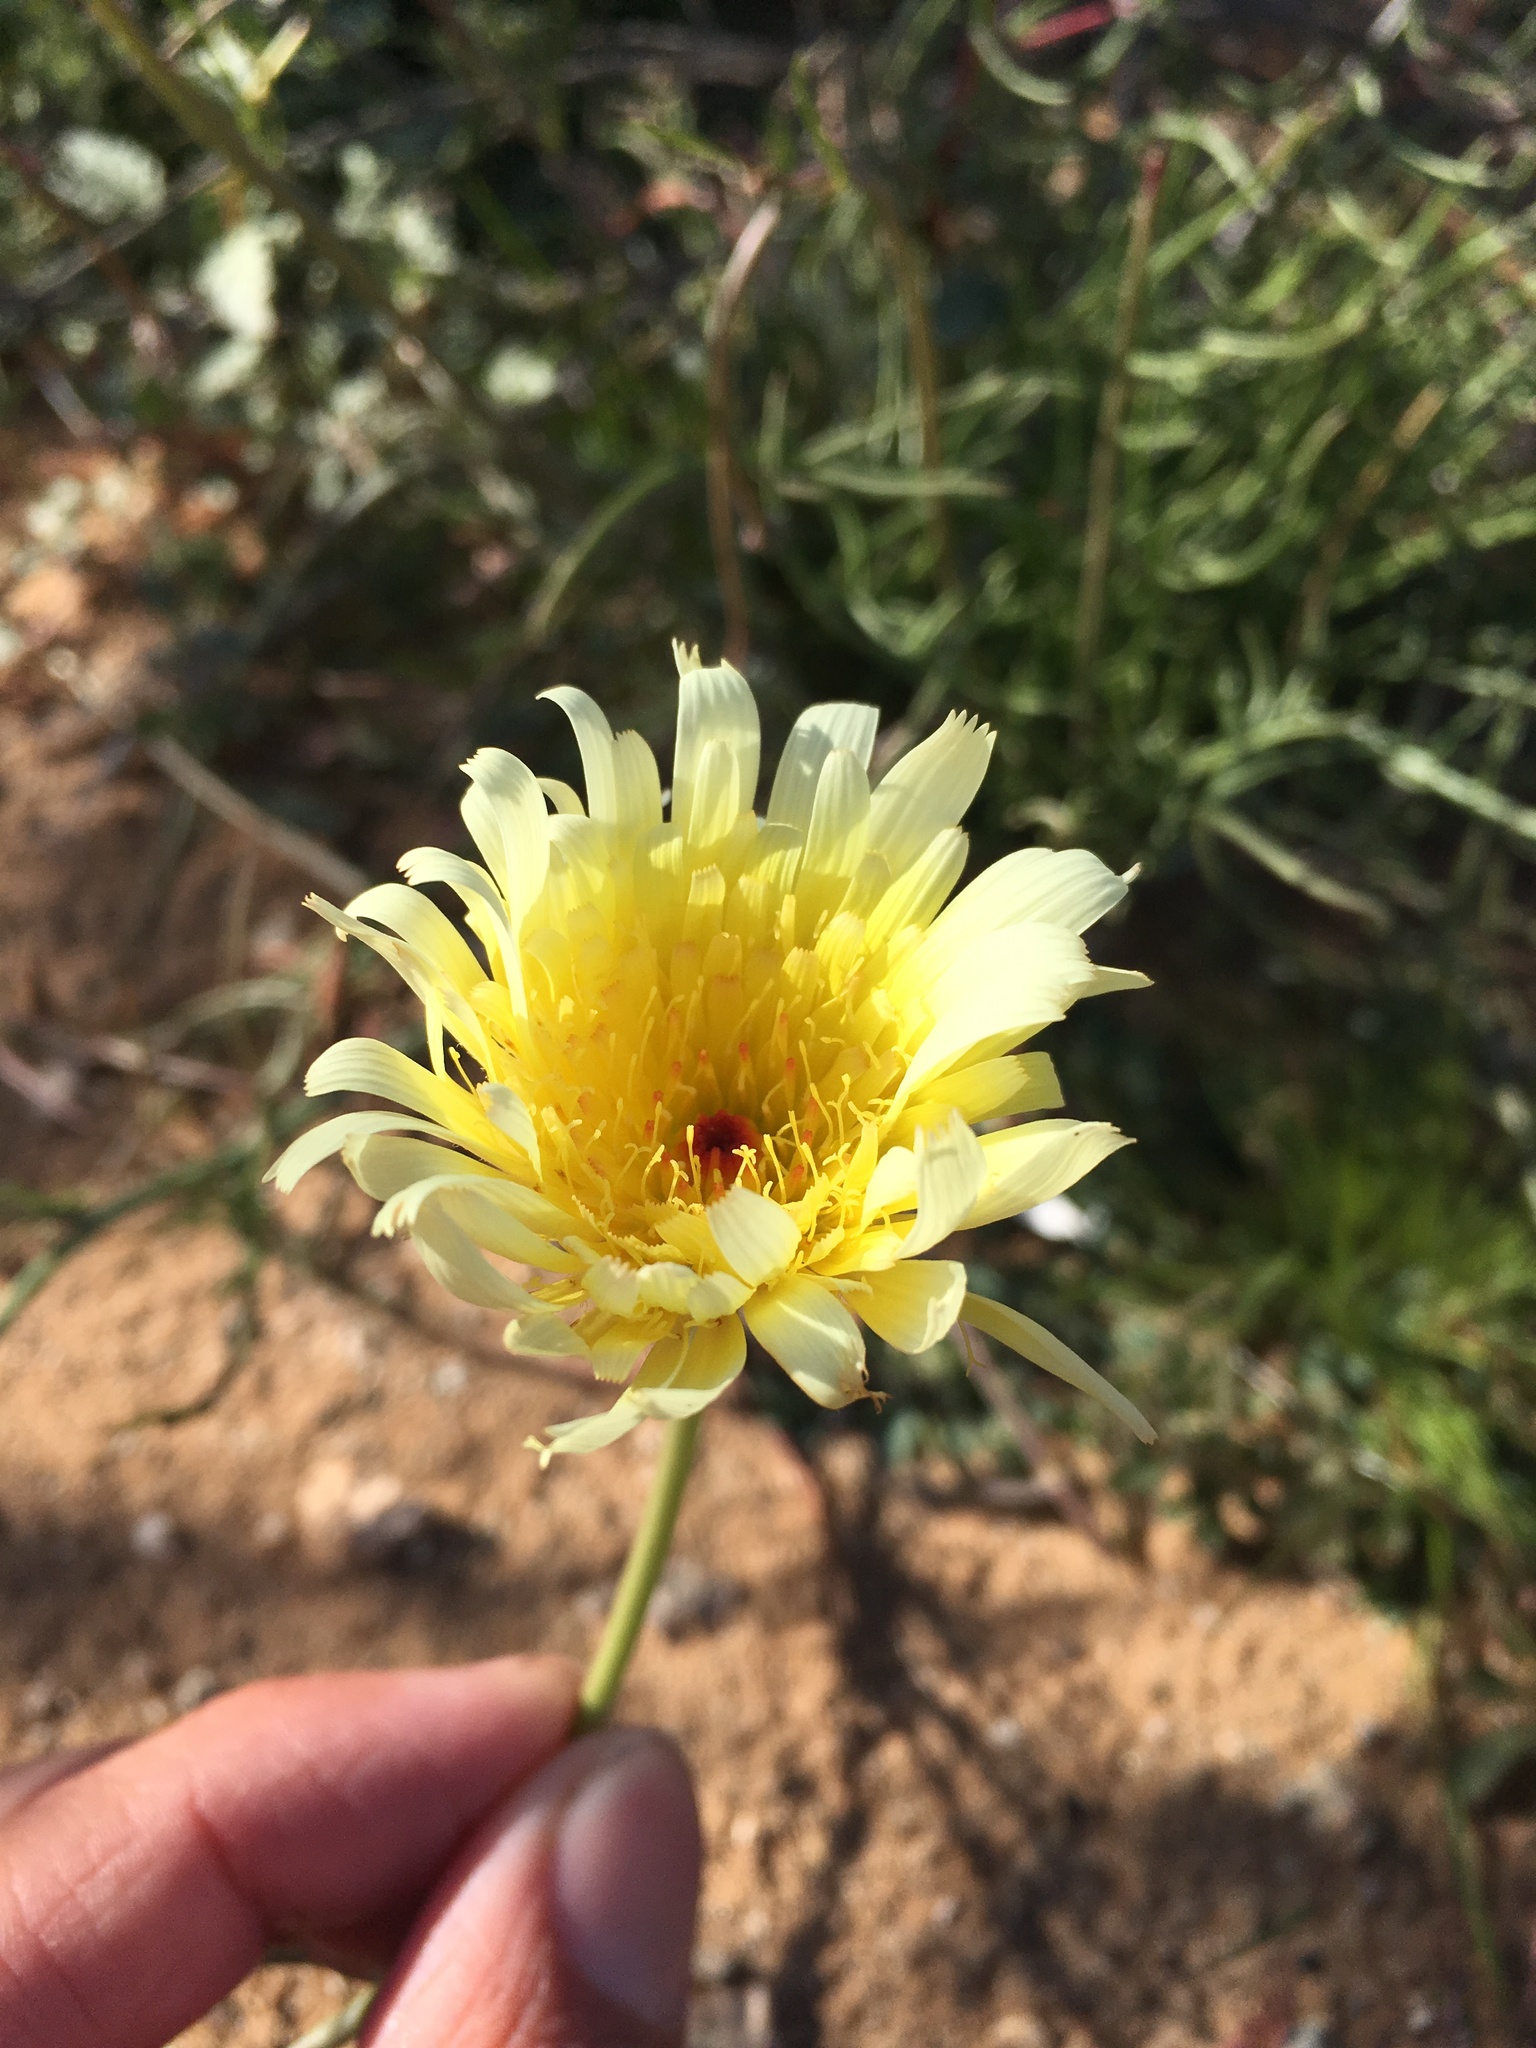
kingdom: Plantae
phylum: Tracheophyta
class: Magnoliopsida
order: Asterales
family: Asteraceae
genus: Malacothrix
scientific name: Malacothrix glabrata
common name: Smooth desert-dandelion
